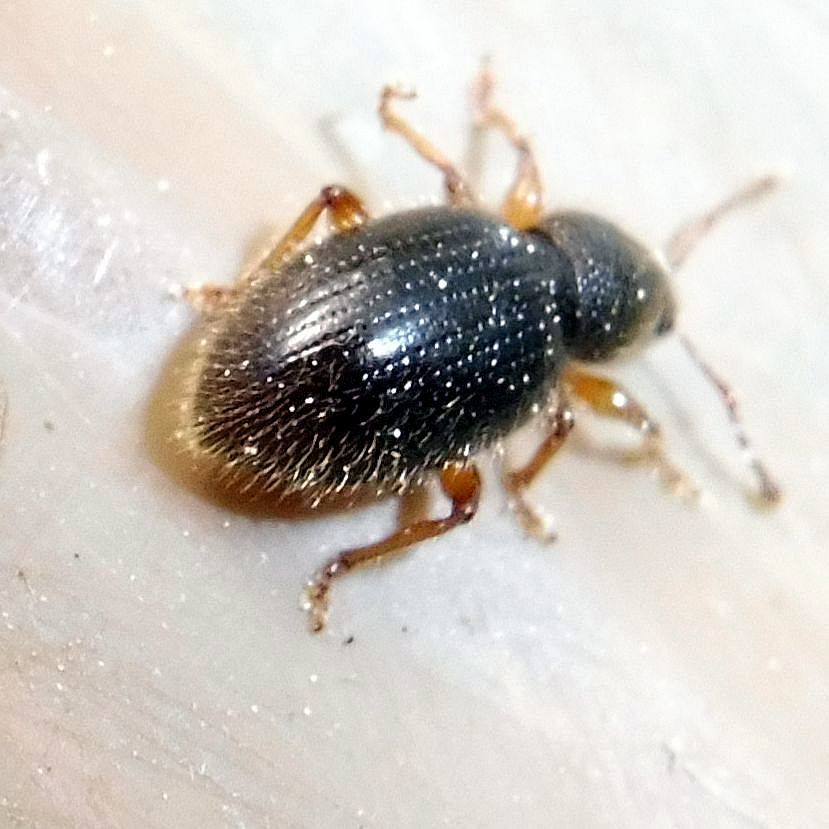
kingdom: Animalia
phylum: Arthropoda
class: Insecta
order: Coleoptera
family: Curculionidae
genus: Exomias
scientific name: Exomias pellucidus
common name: Hairy spider weevil
